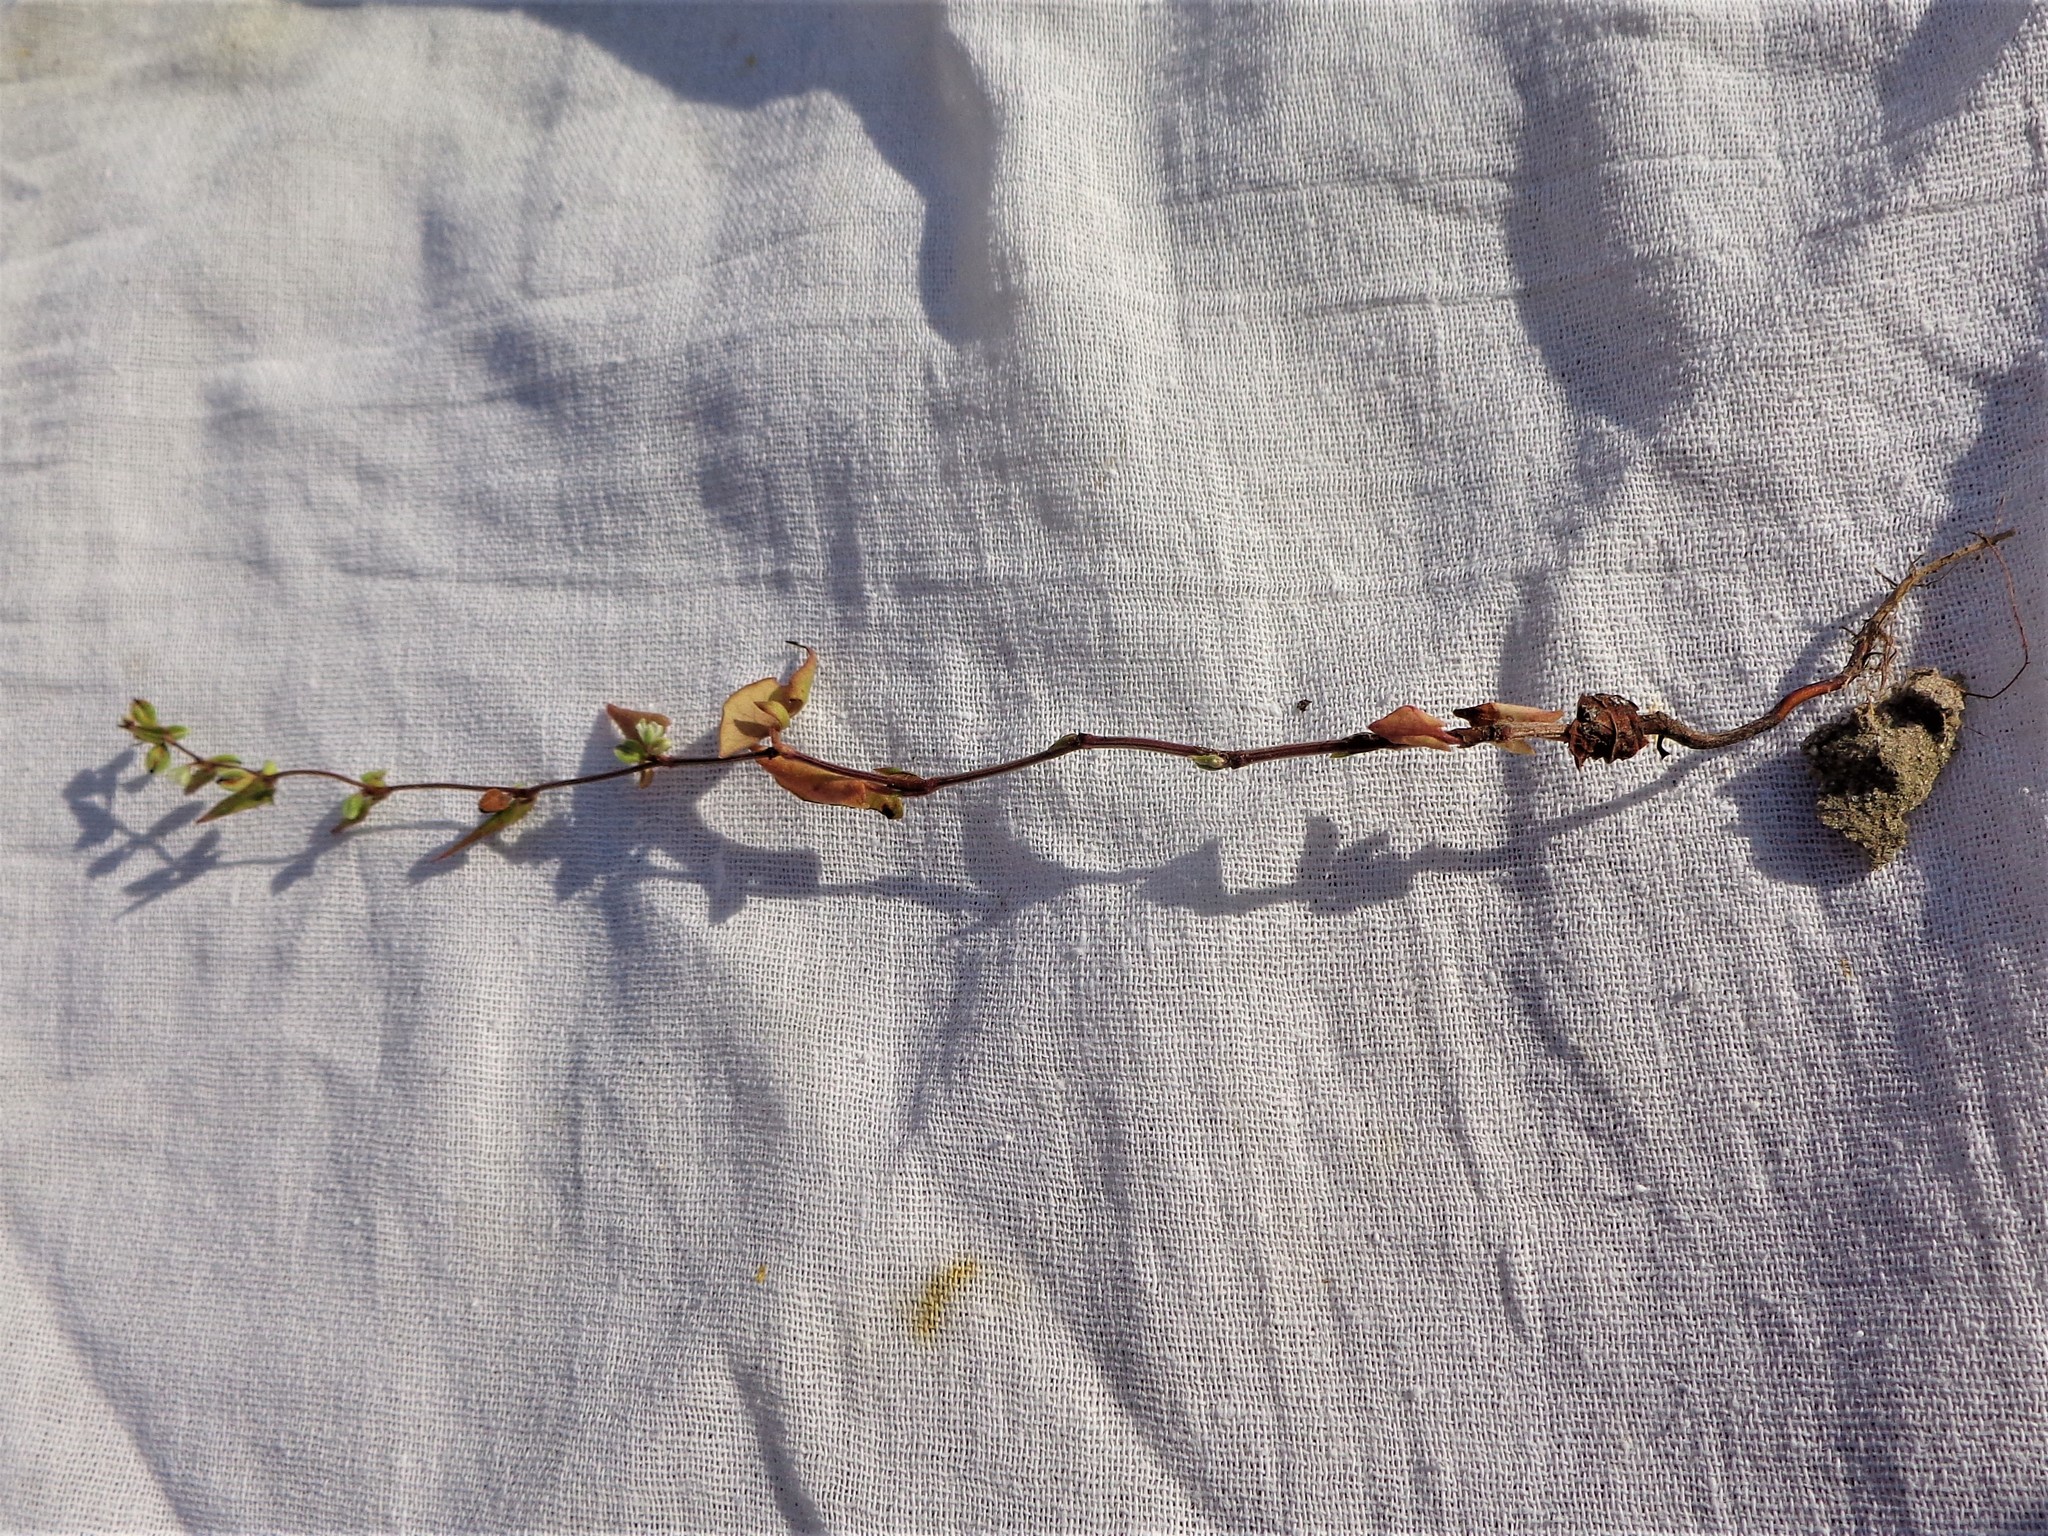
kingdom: Plantae
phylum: Tracheophyta
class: Magnoliopsida
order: Caryophyllales
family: Polygonaceae
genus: Fallopia
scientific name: Fallopia convolvulus
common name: Black bindweed
